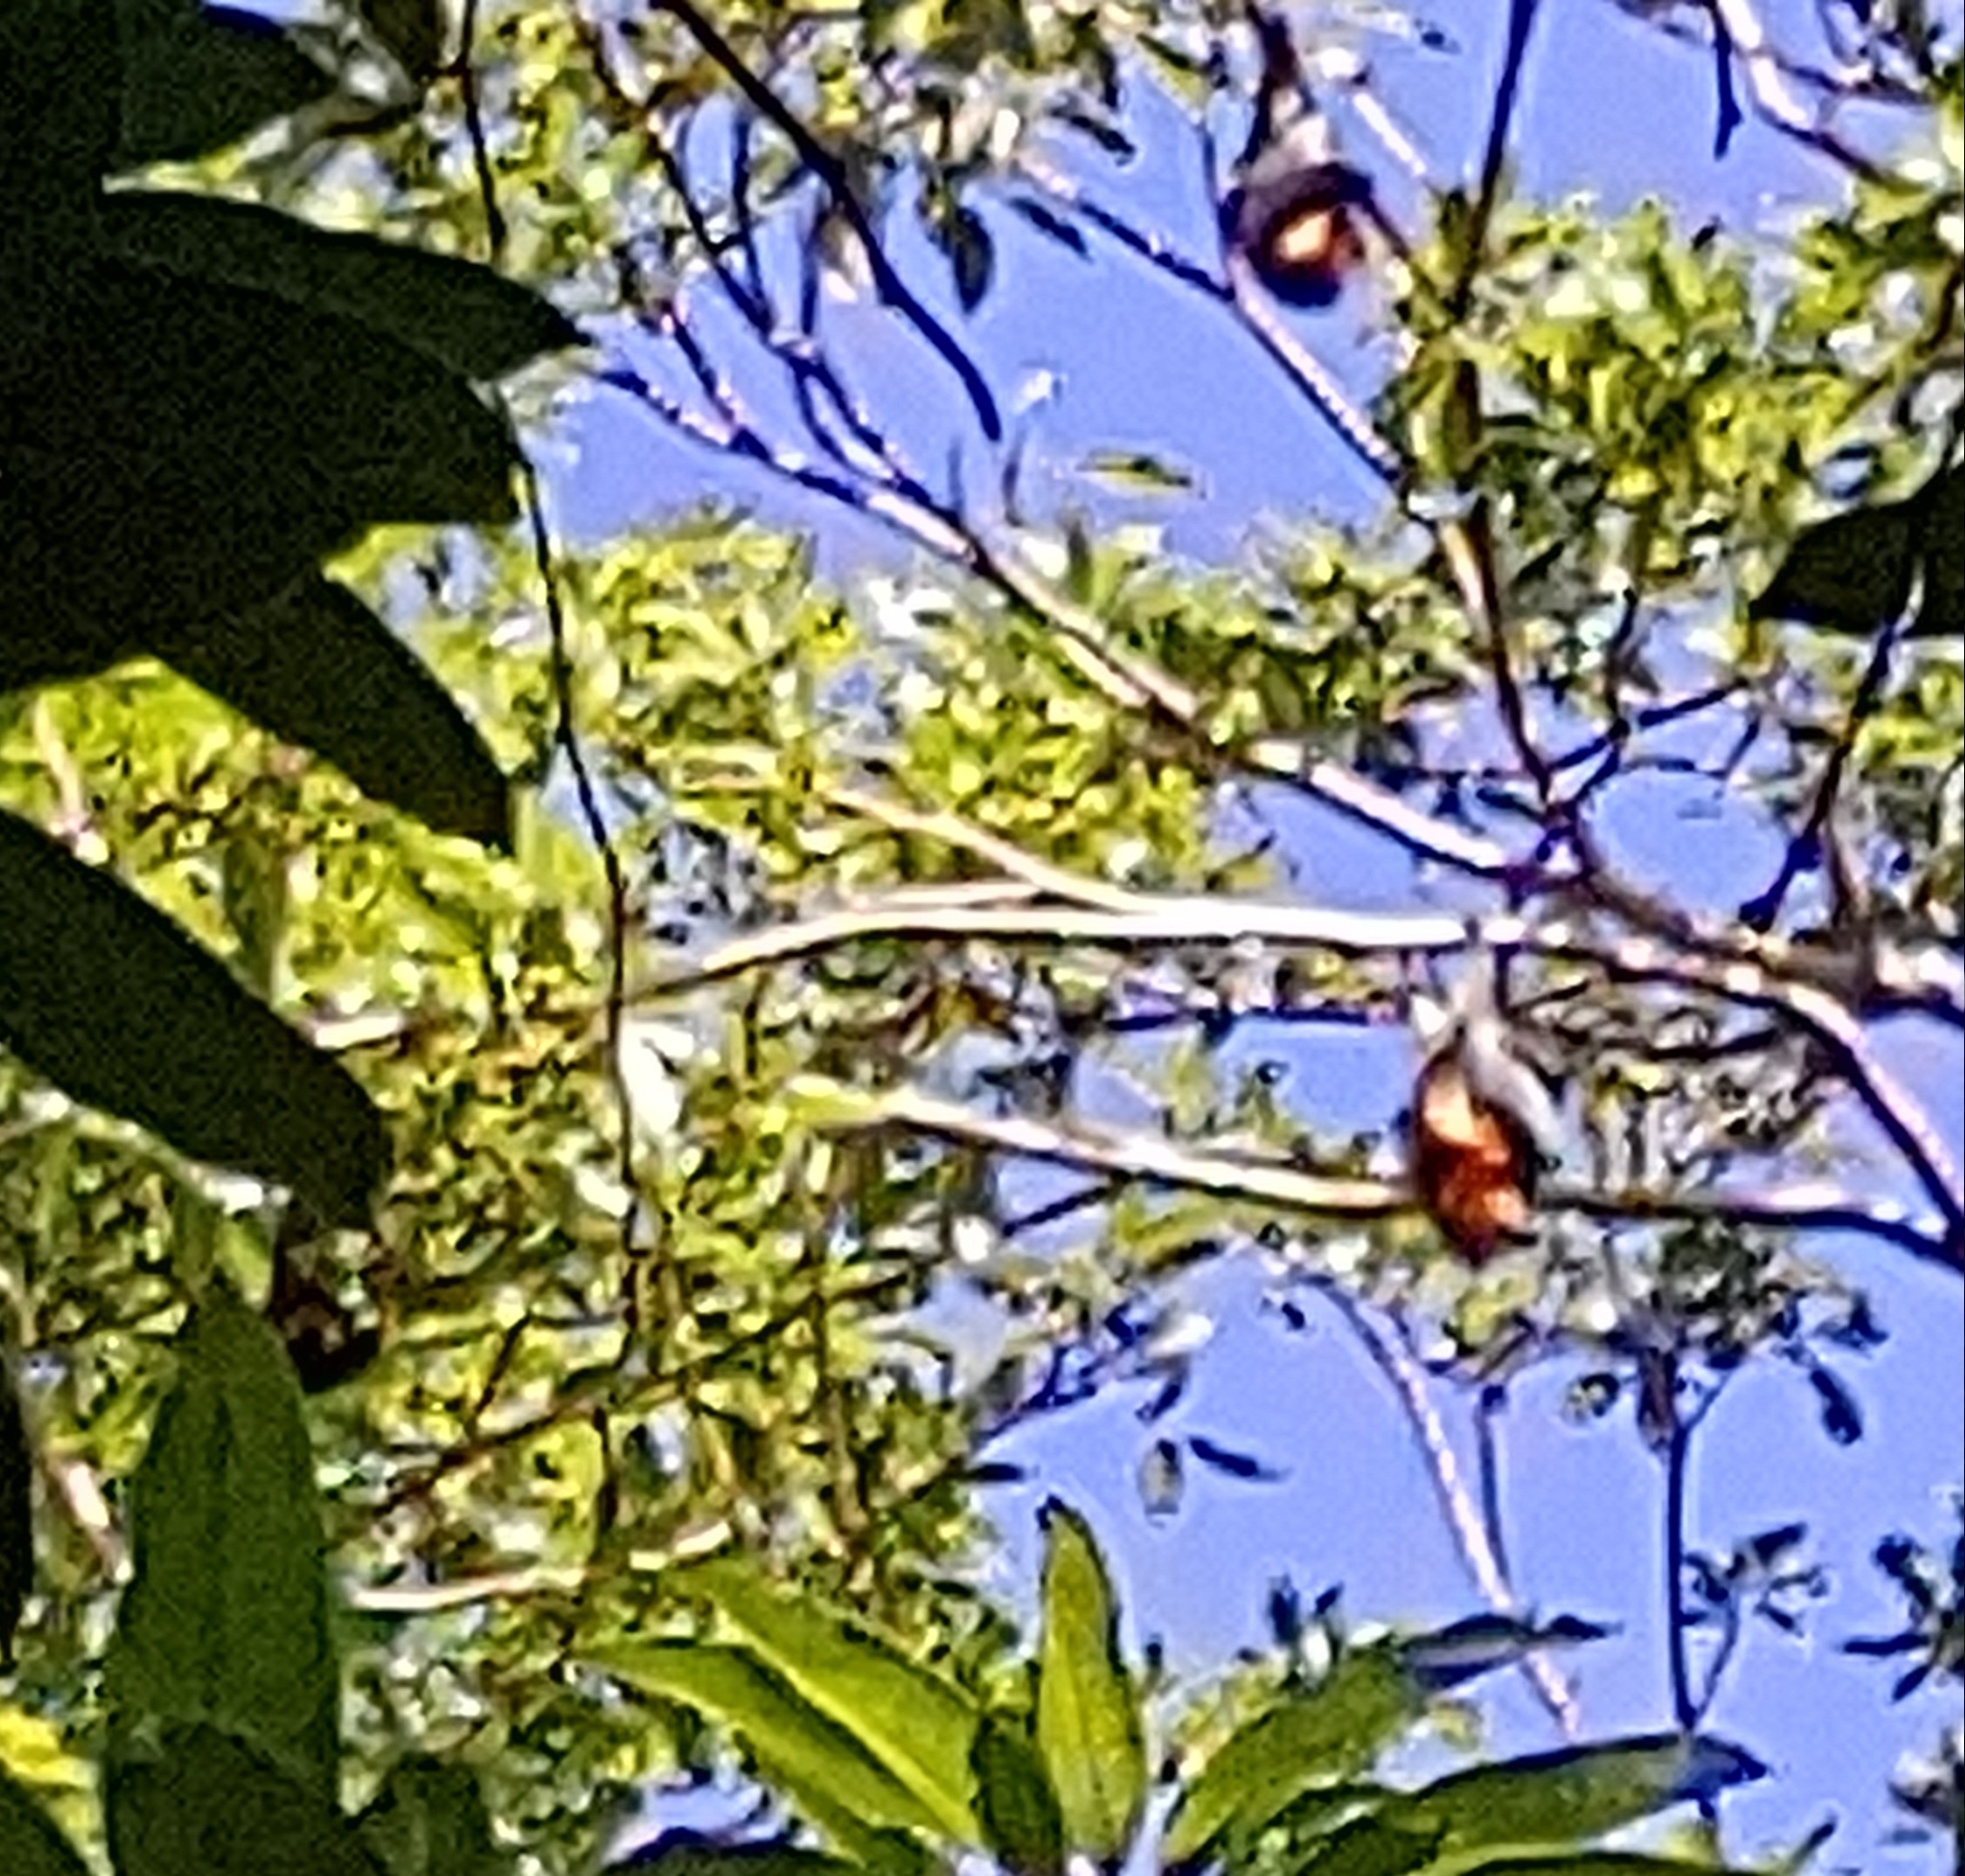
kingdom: Animalia
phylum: Chordata
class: Mammalia
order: Chiroptera
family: Pteropodidae
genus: Pteropus
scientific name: Pteropus niger
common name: Greater mascarene flying fox
